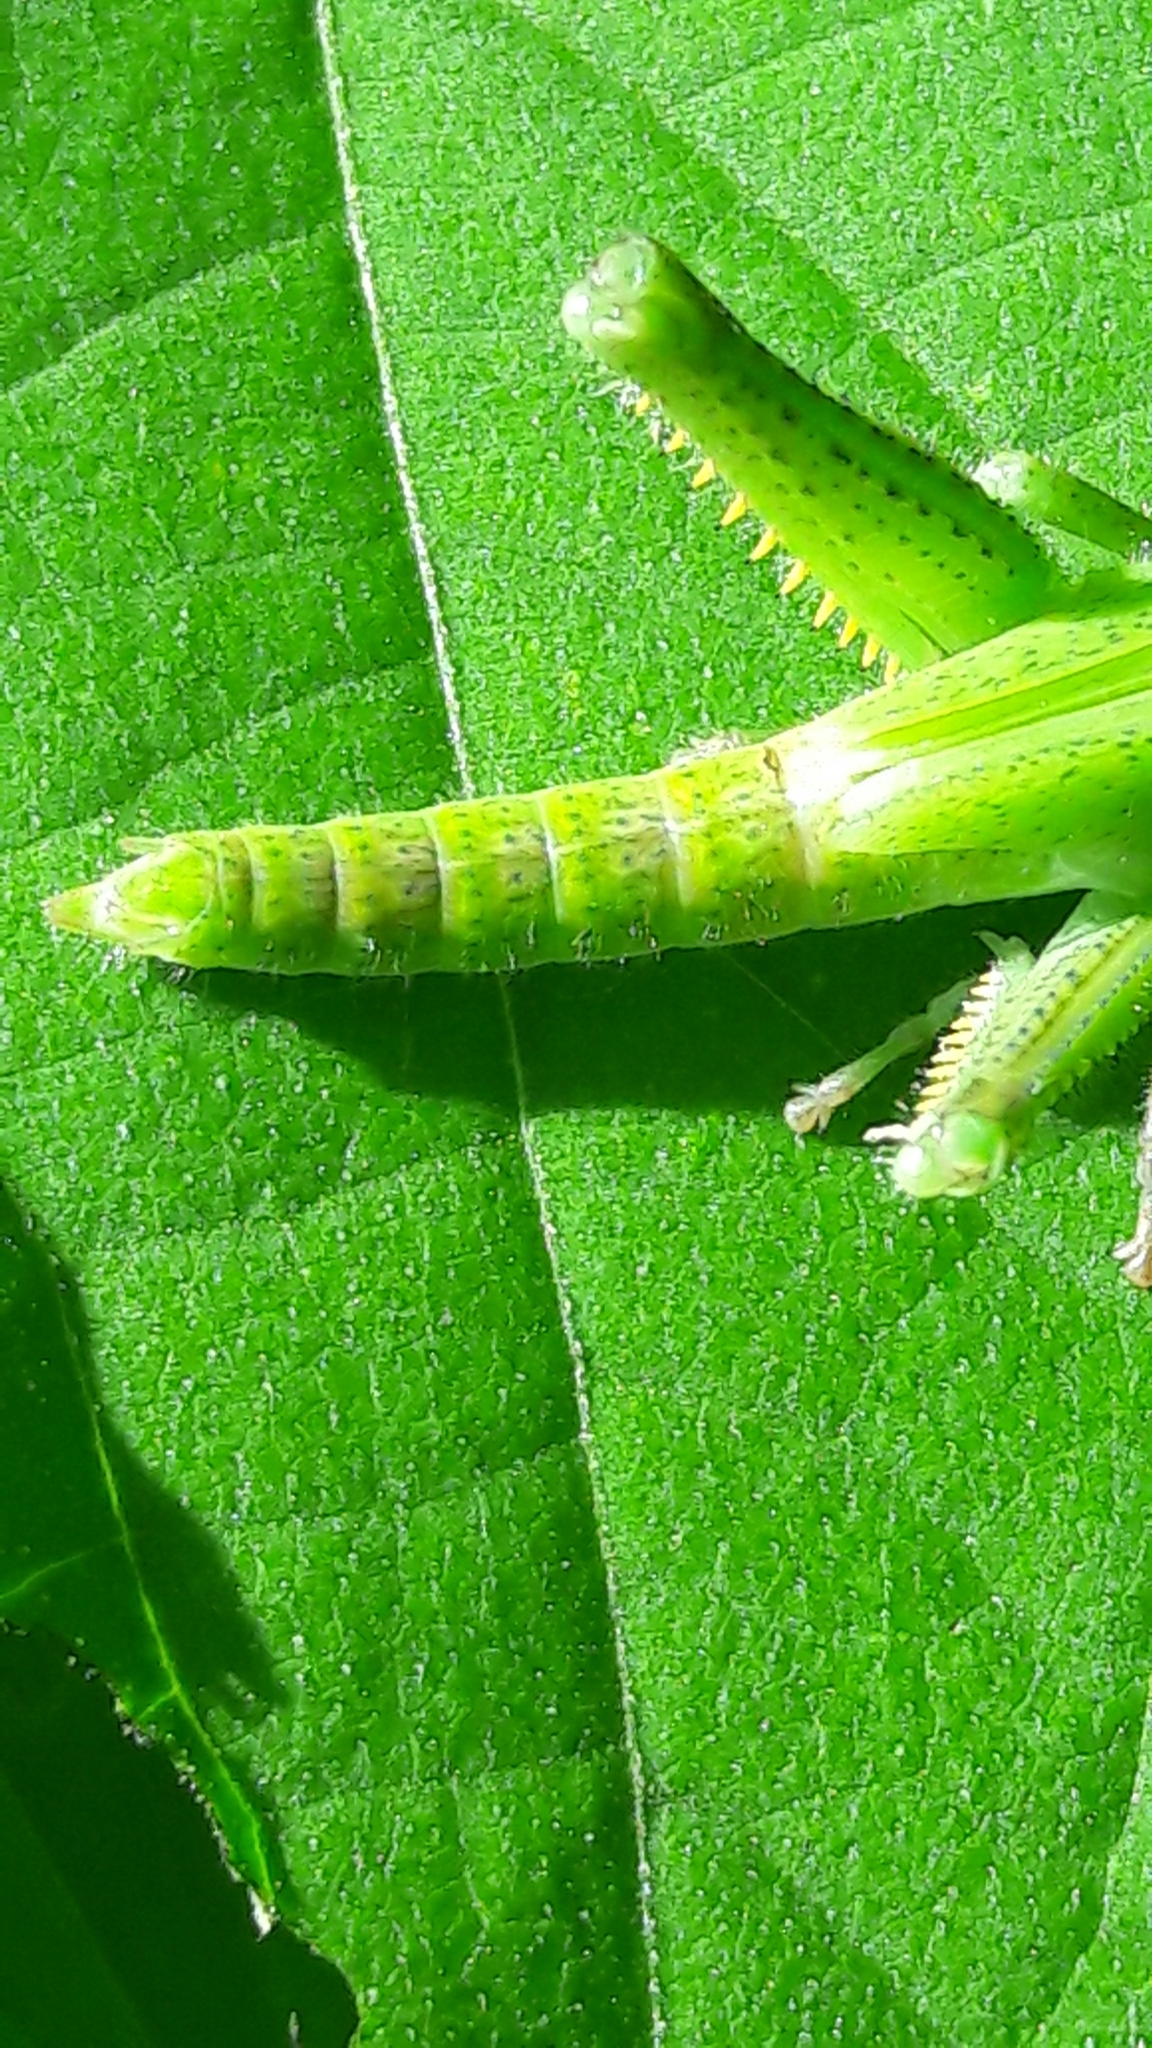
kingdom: Animalia
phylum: Arthropoda
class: Insecta
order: Orthoptera
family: Acrididae
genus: Schistocerca
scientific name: Schistocerca flavofasciata
